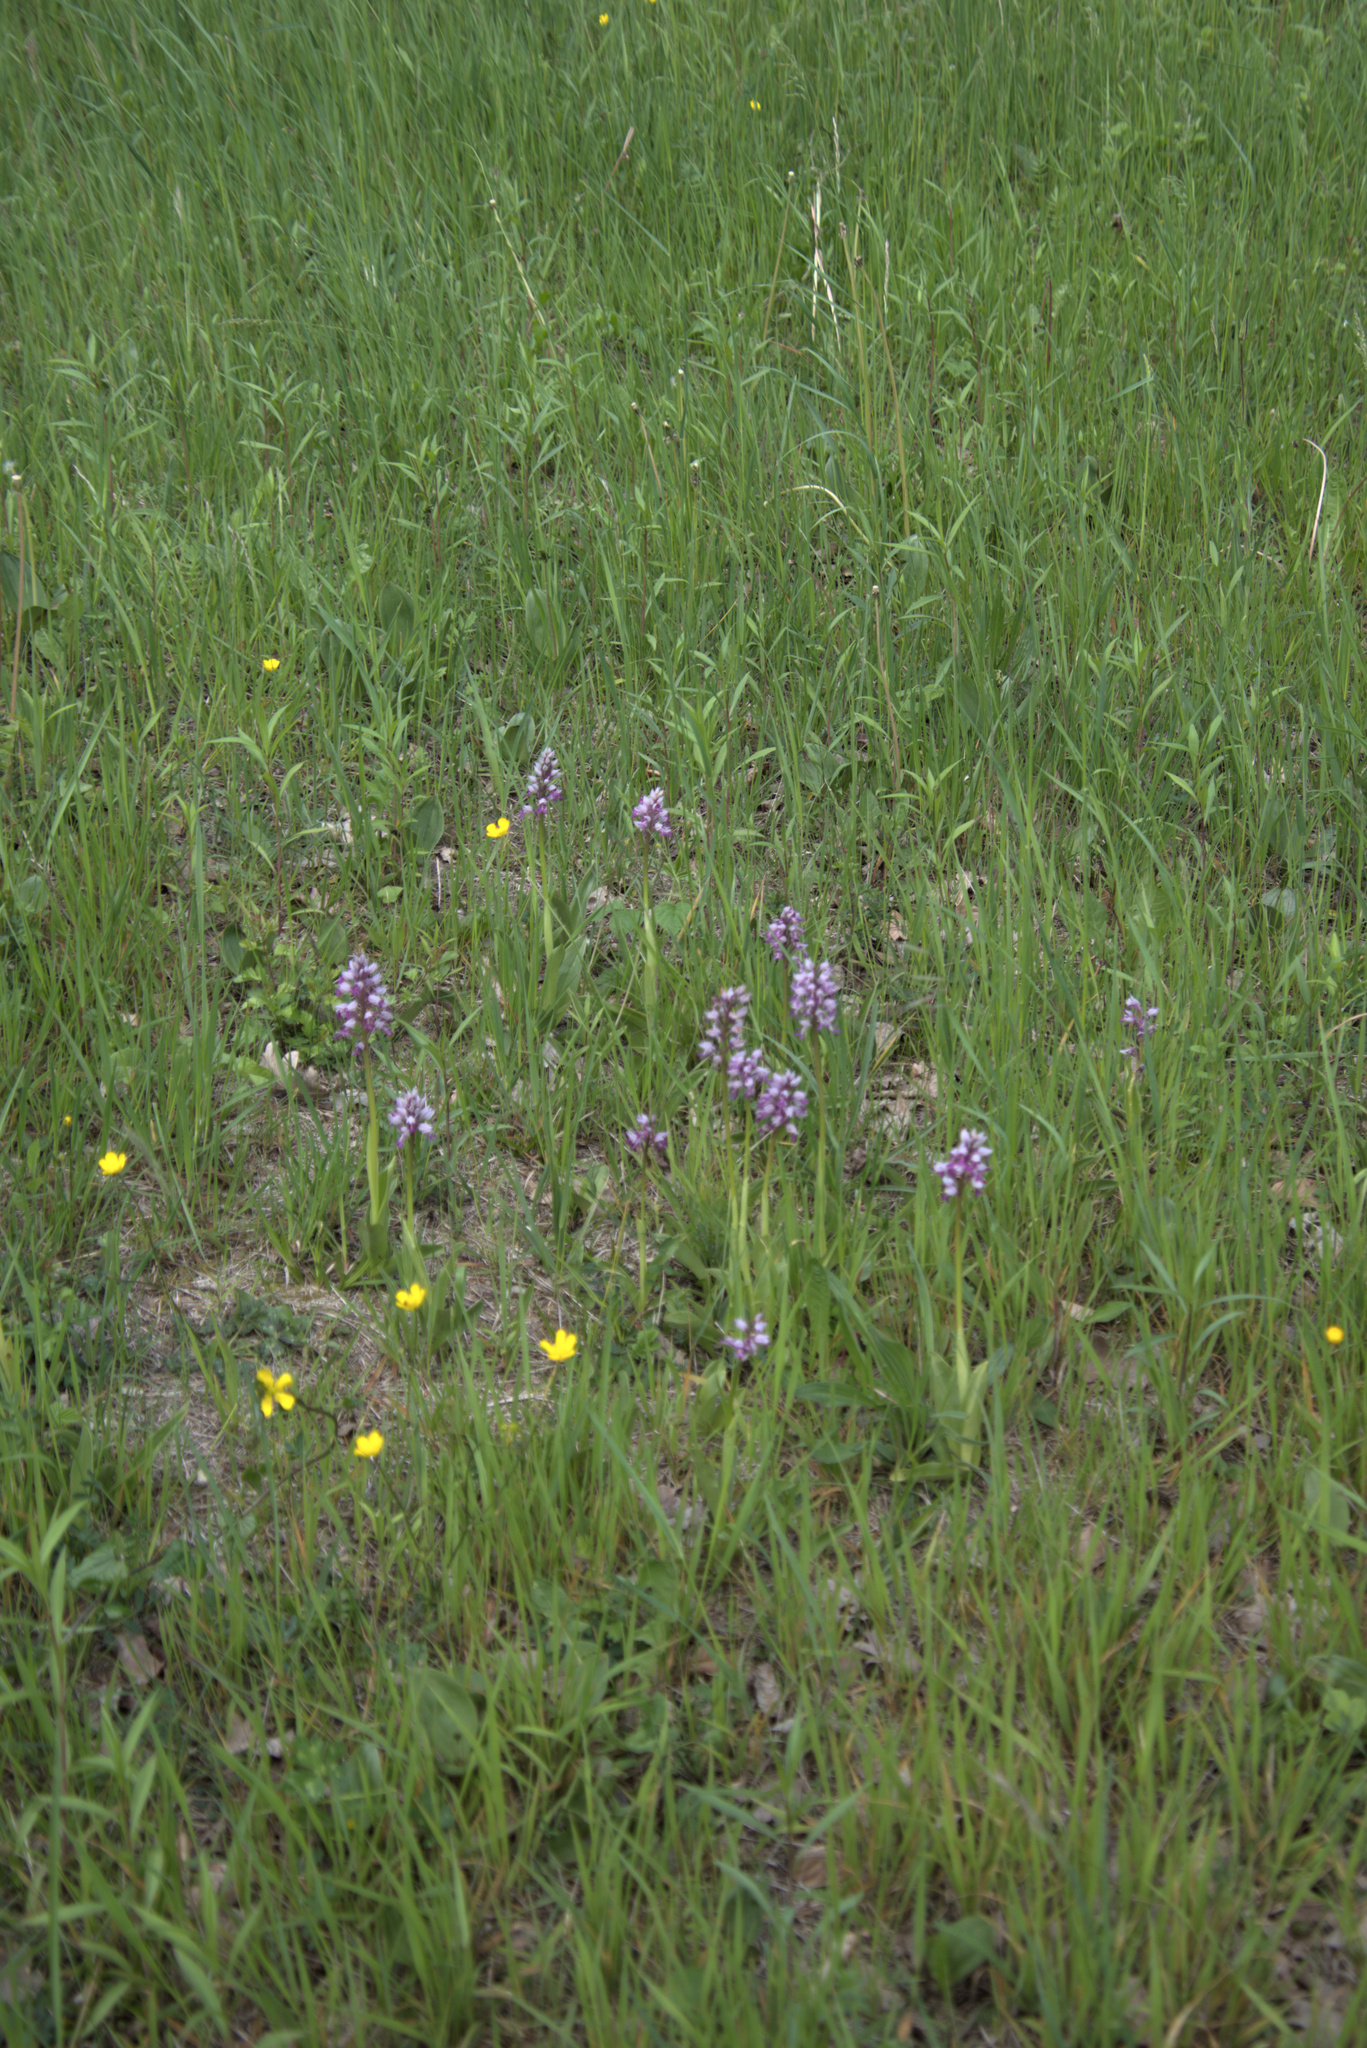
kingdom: Plantae
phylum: Tracheophyta
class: Liliopsida
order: Asparagales
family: Orchidaceae
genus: Orchis
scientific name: Orchis militaris
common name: Military orchid
